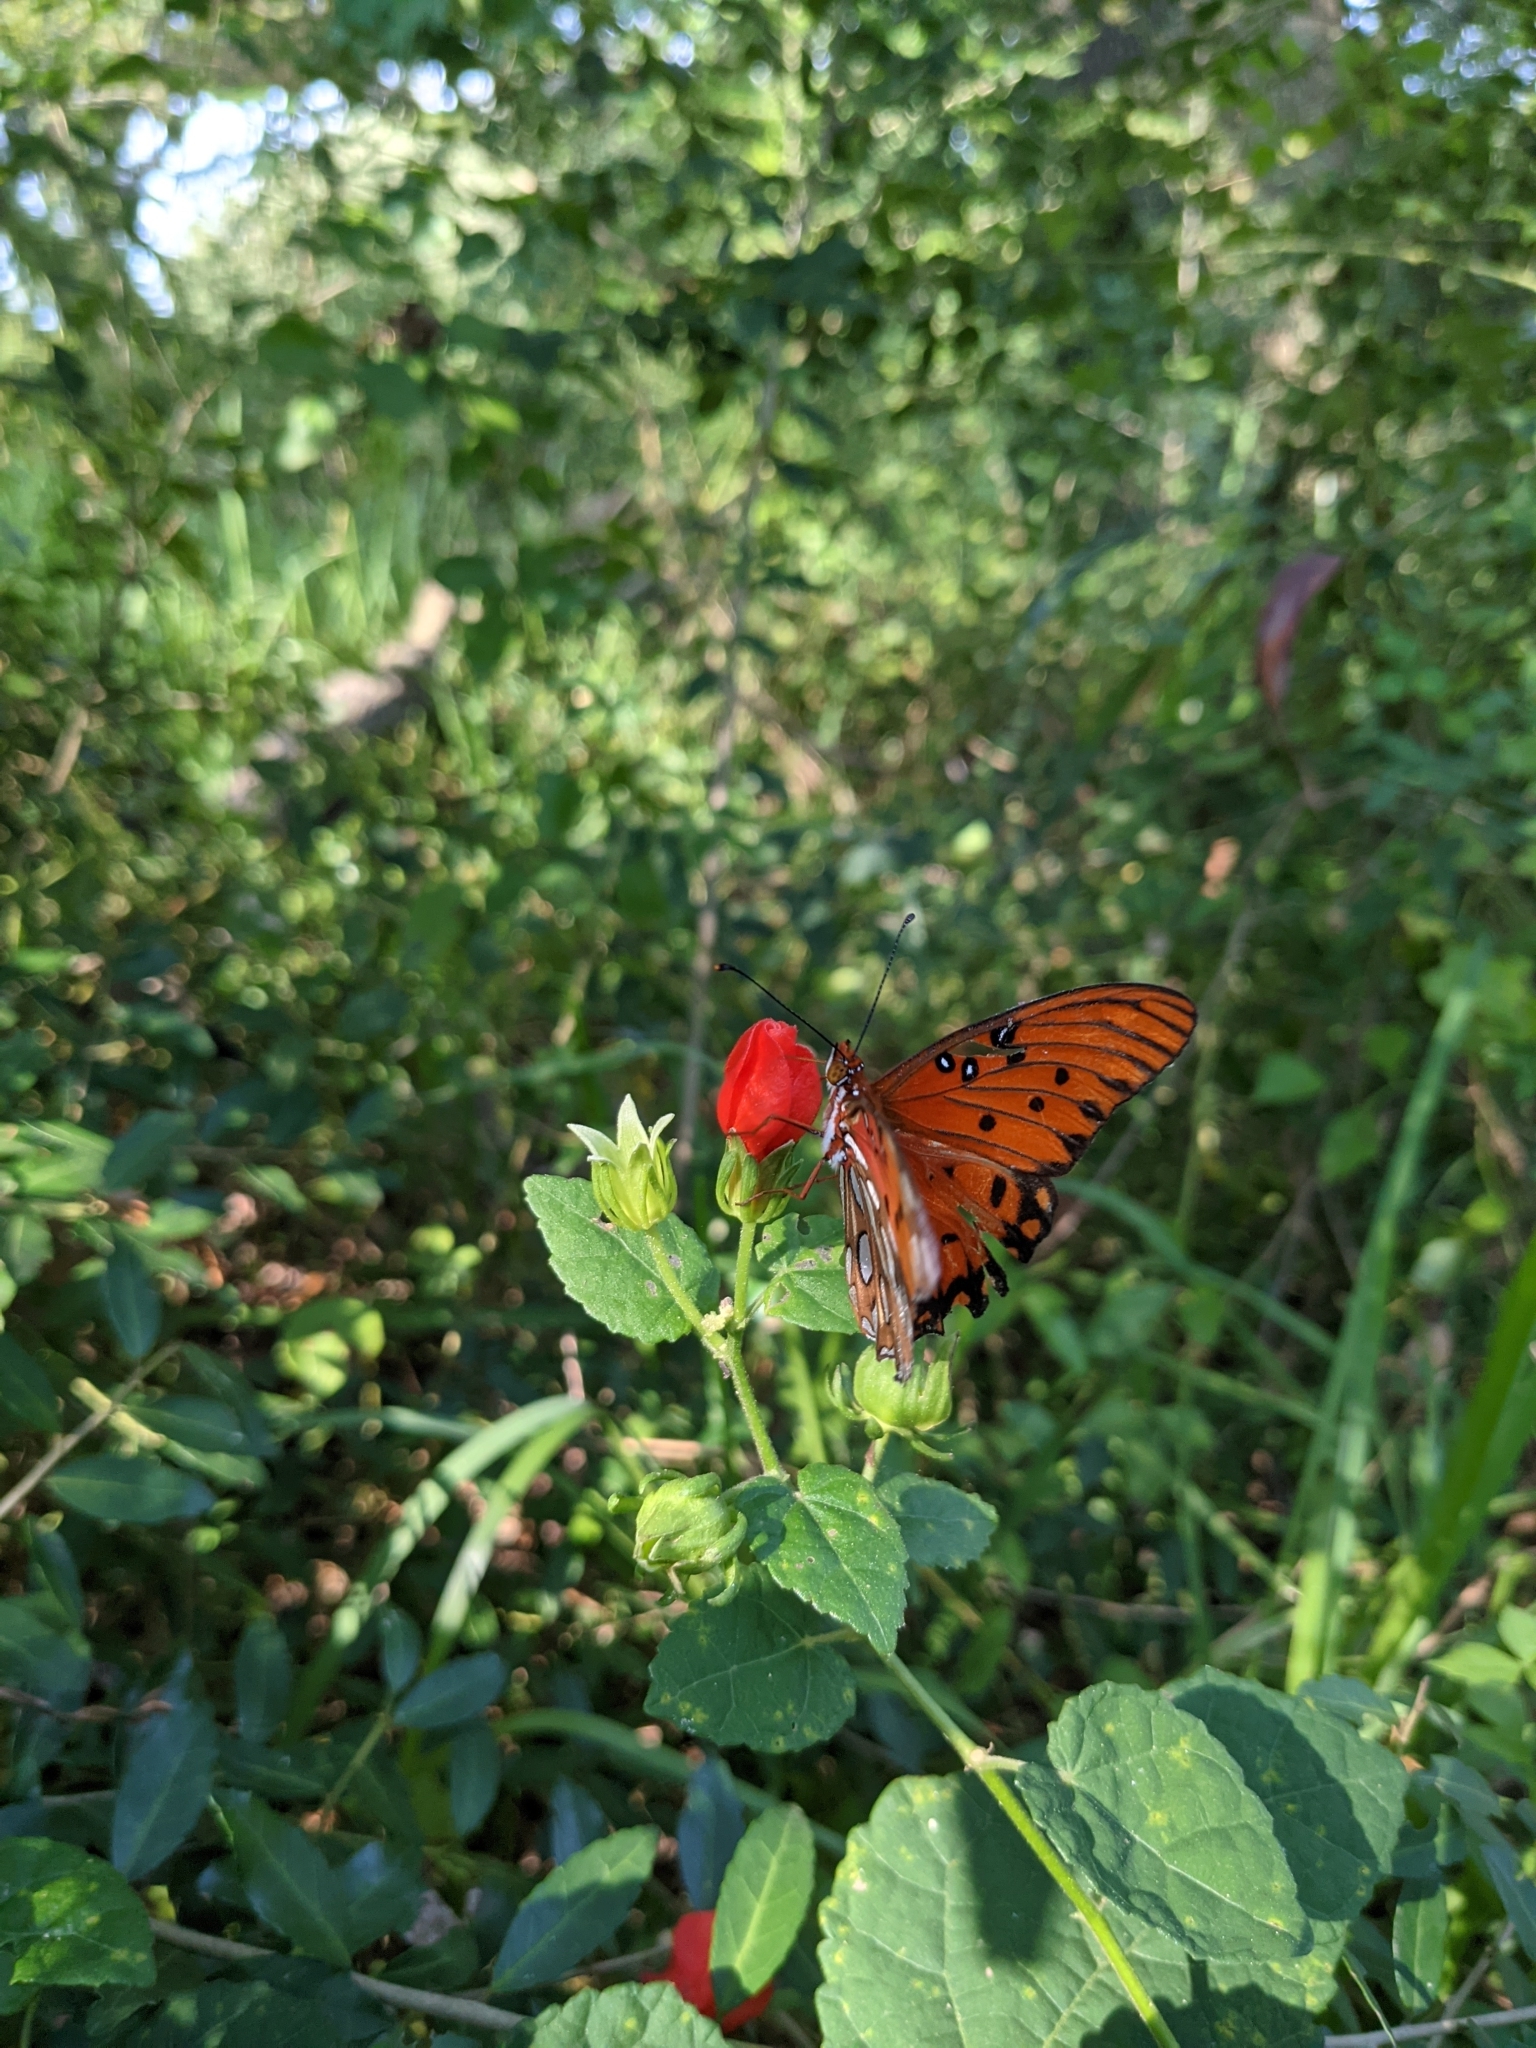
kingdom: Animalia
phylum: Arthropoda
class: Insecta
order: Lepidoptera
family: Nymphalidae
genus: Dione
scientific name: Dione vanillae
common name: Gulf fritillary
